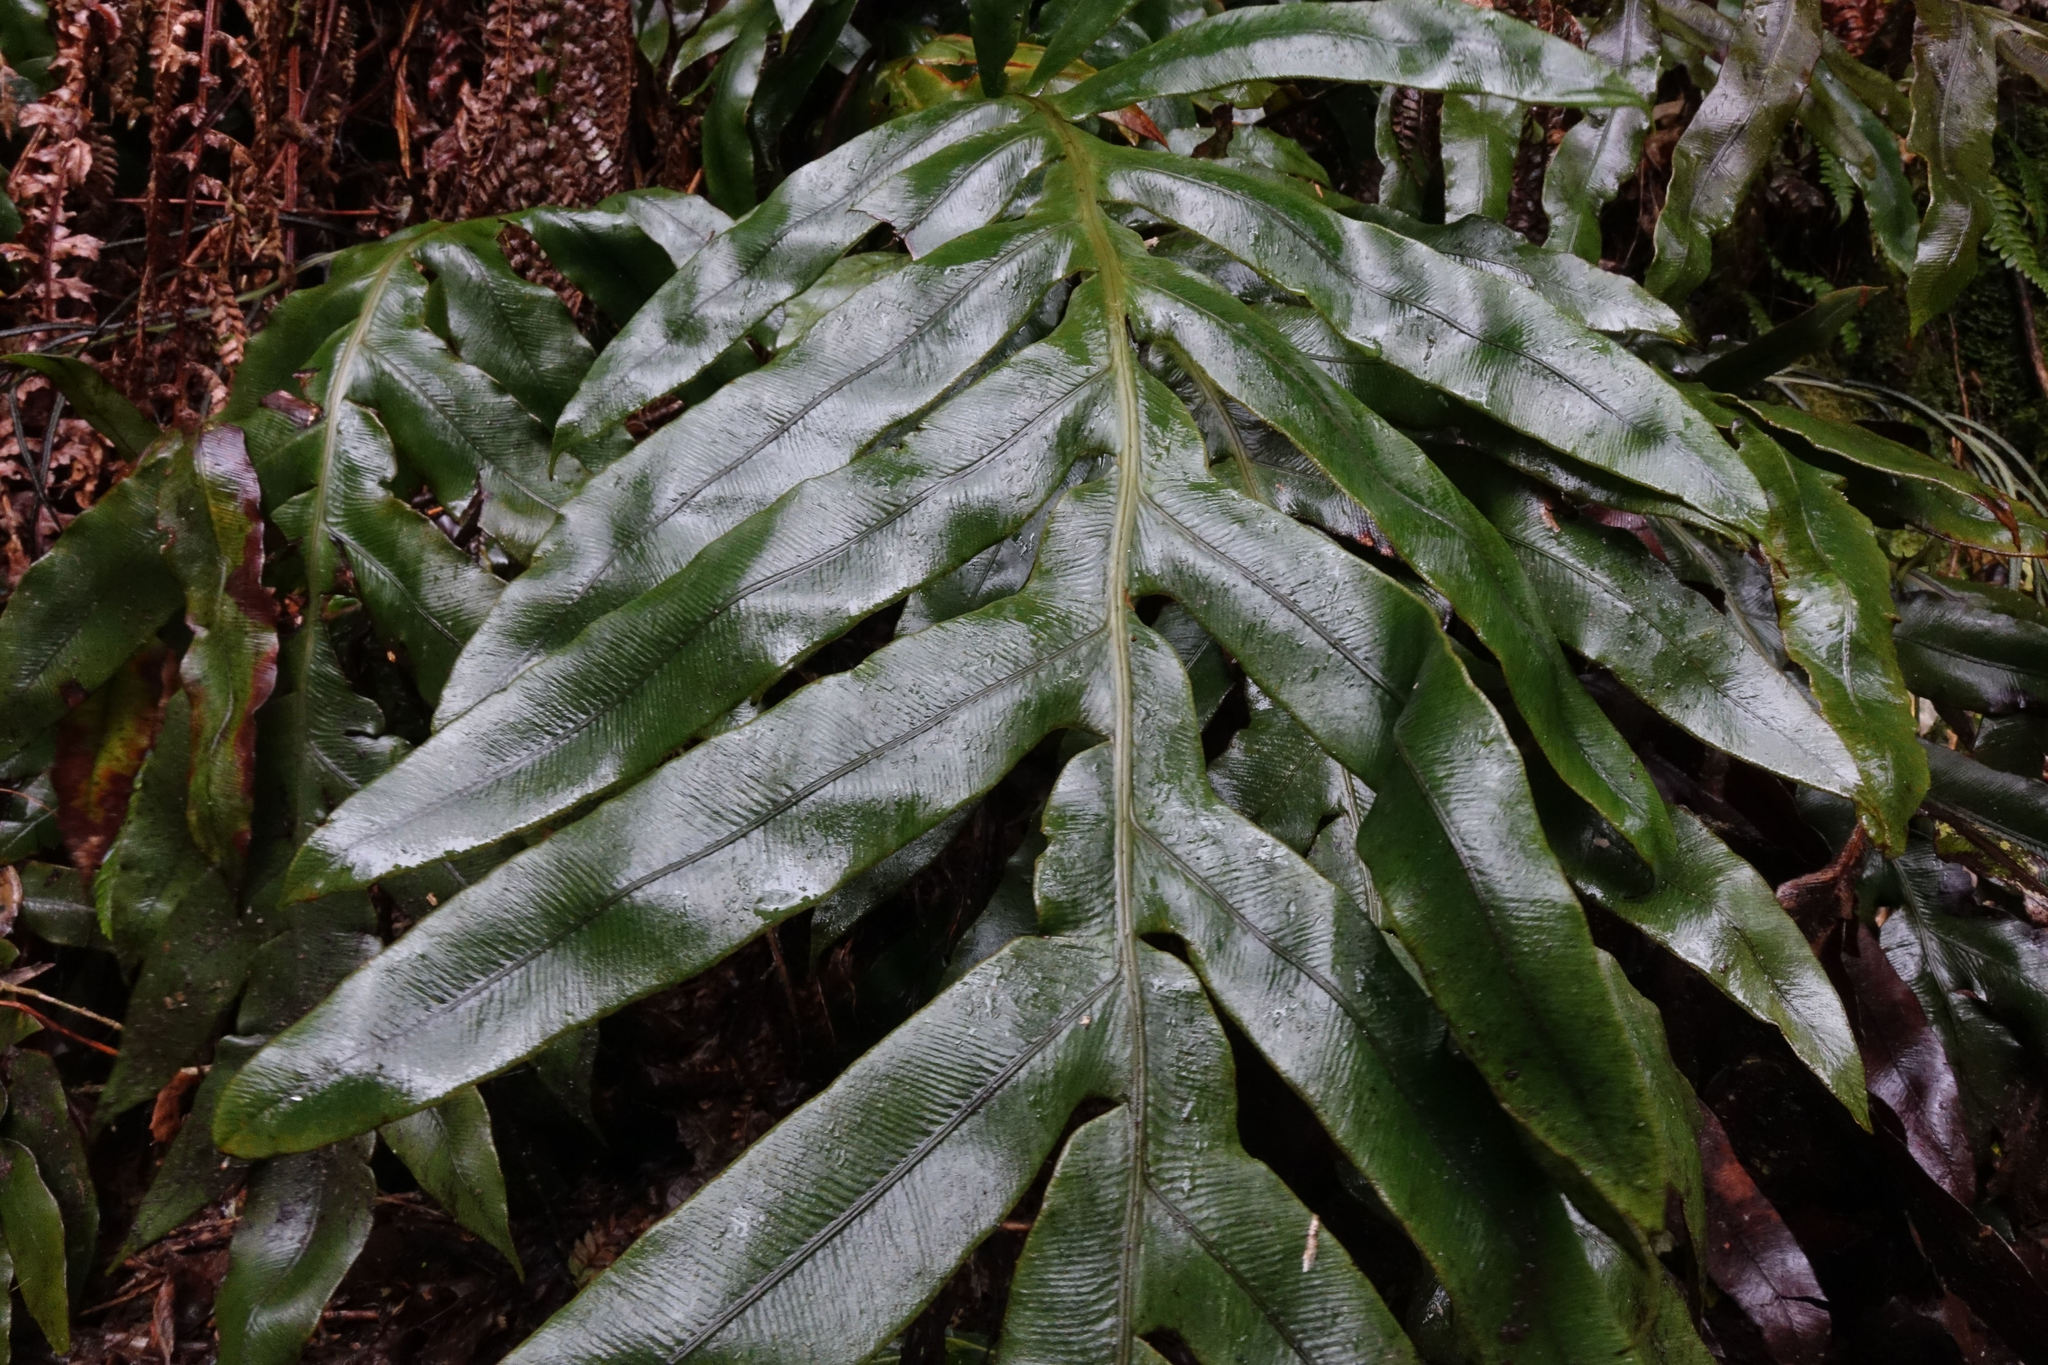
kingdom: Plantae
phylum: Tracheophyta
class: Polypodiopsida
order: Polypodiales
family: Blechnaceae
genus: Austroblechnum
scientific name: Austroblechnum colensoi
